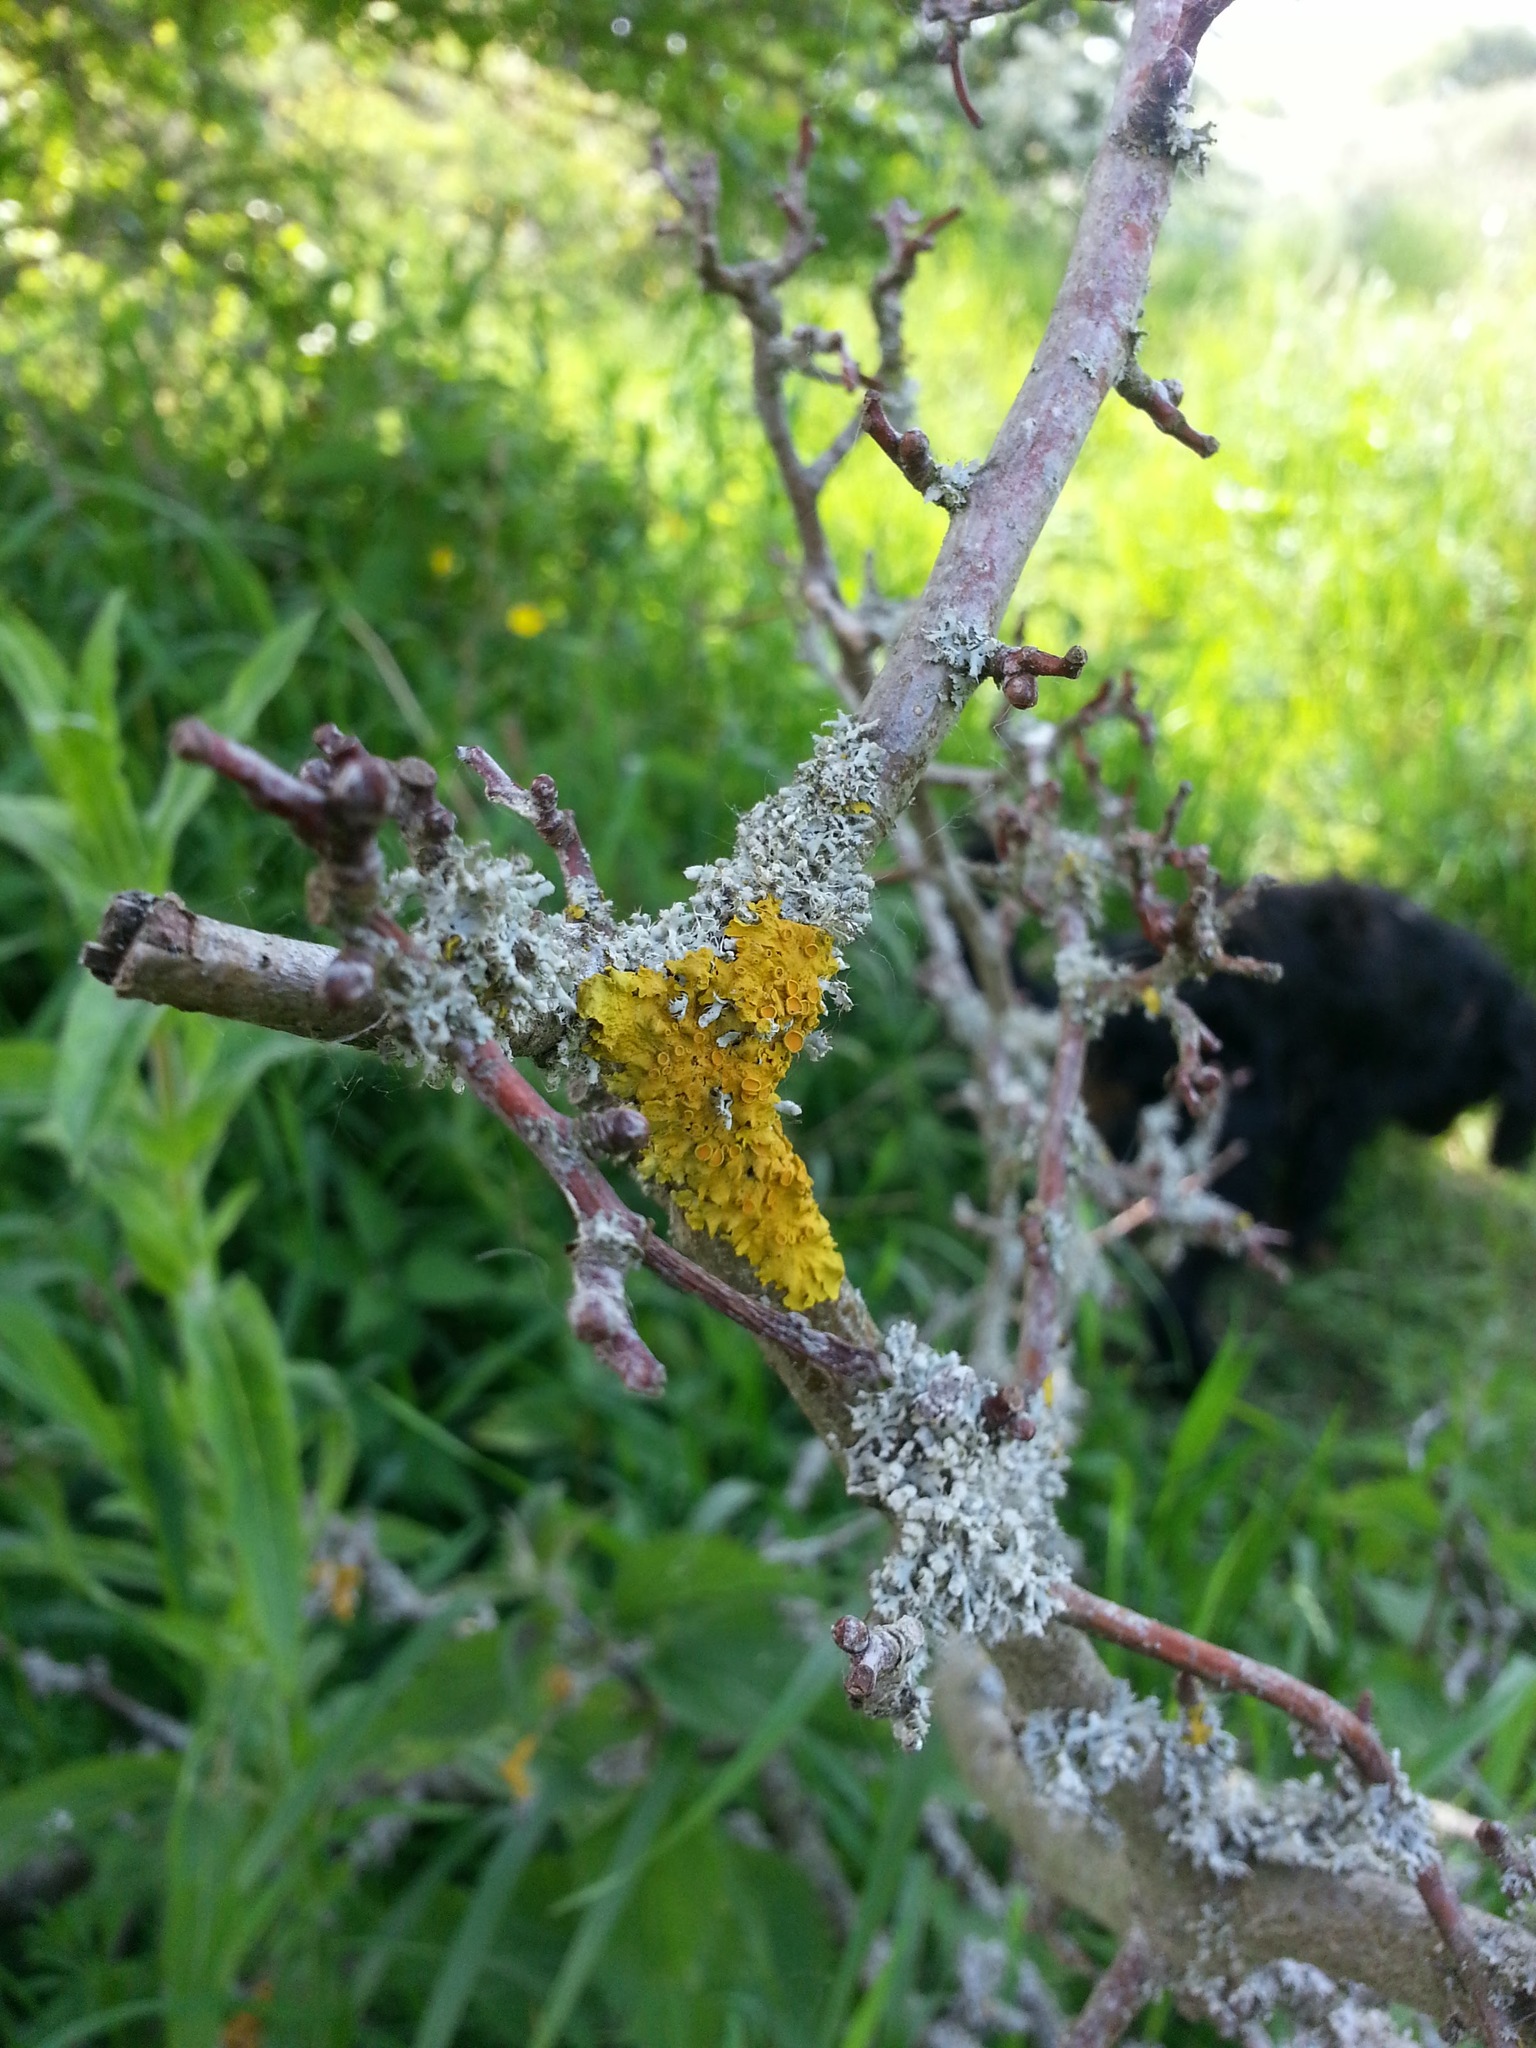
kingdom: Fungi
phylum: Ascomycota
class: Lecanoromycetes
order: Teloschistales
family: Teloschistaceae
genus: Xanthoria
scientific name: Xanthoria parietina
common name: Common orange lichen
